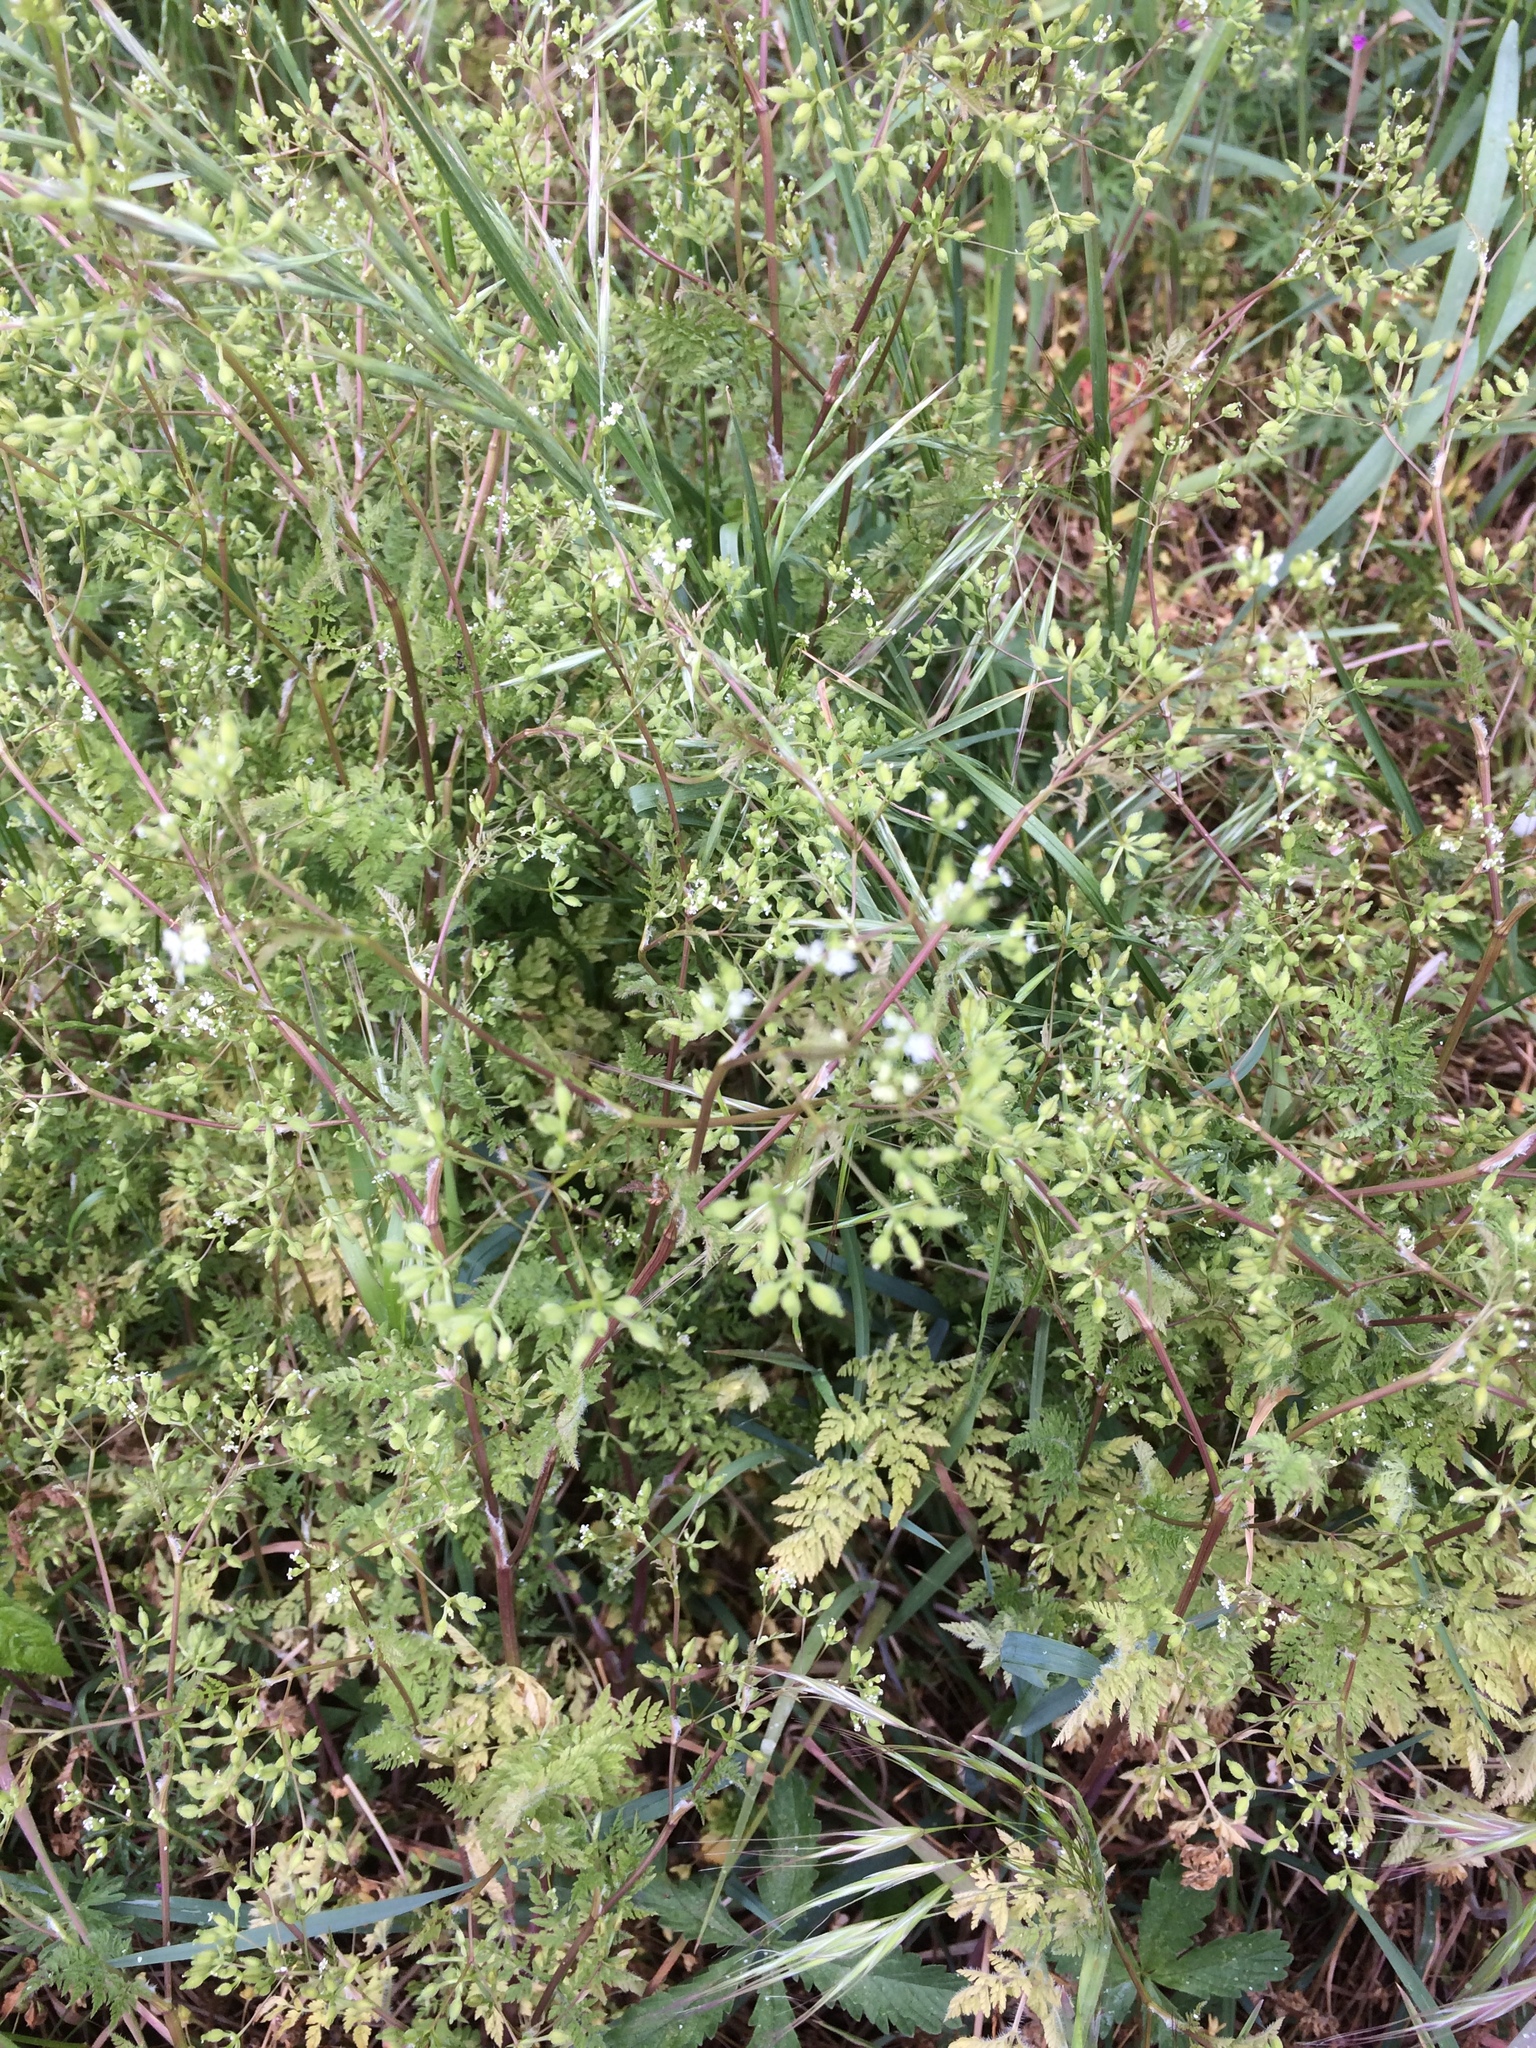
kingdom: Plantae
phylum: Tracheophyta
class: Magnoliopsida
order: Apiales
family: Apiaceae
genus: Anthriscus
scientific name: Anthriscus caucalis
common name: Bur chervil
